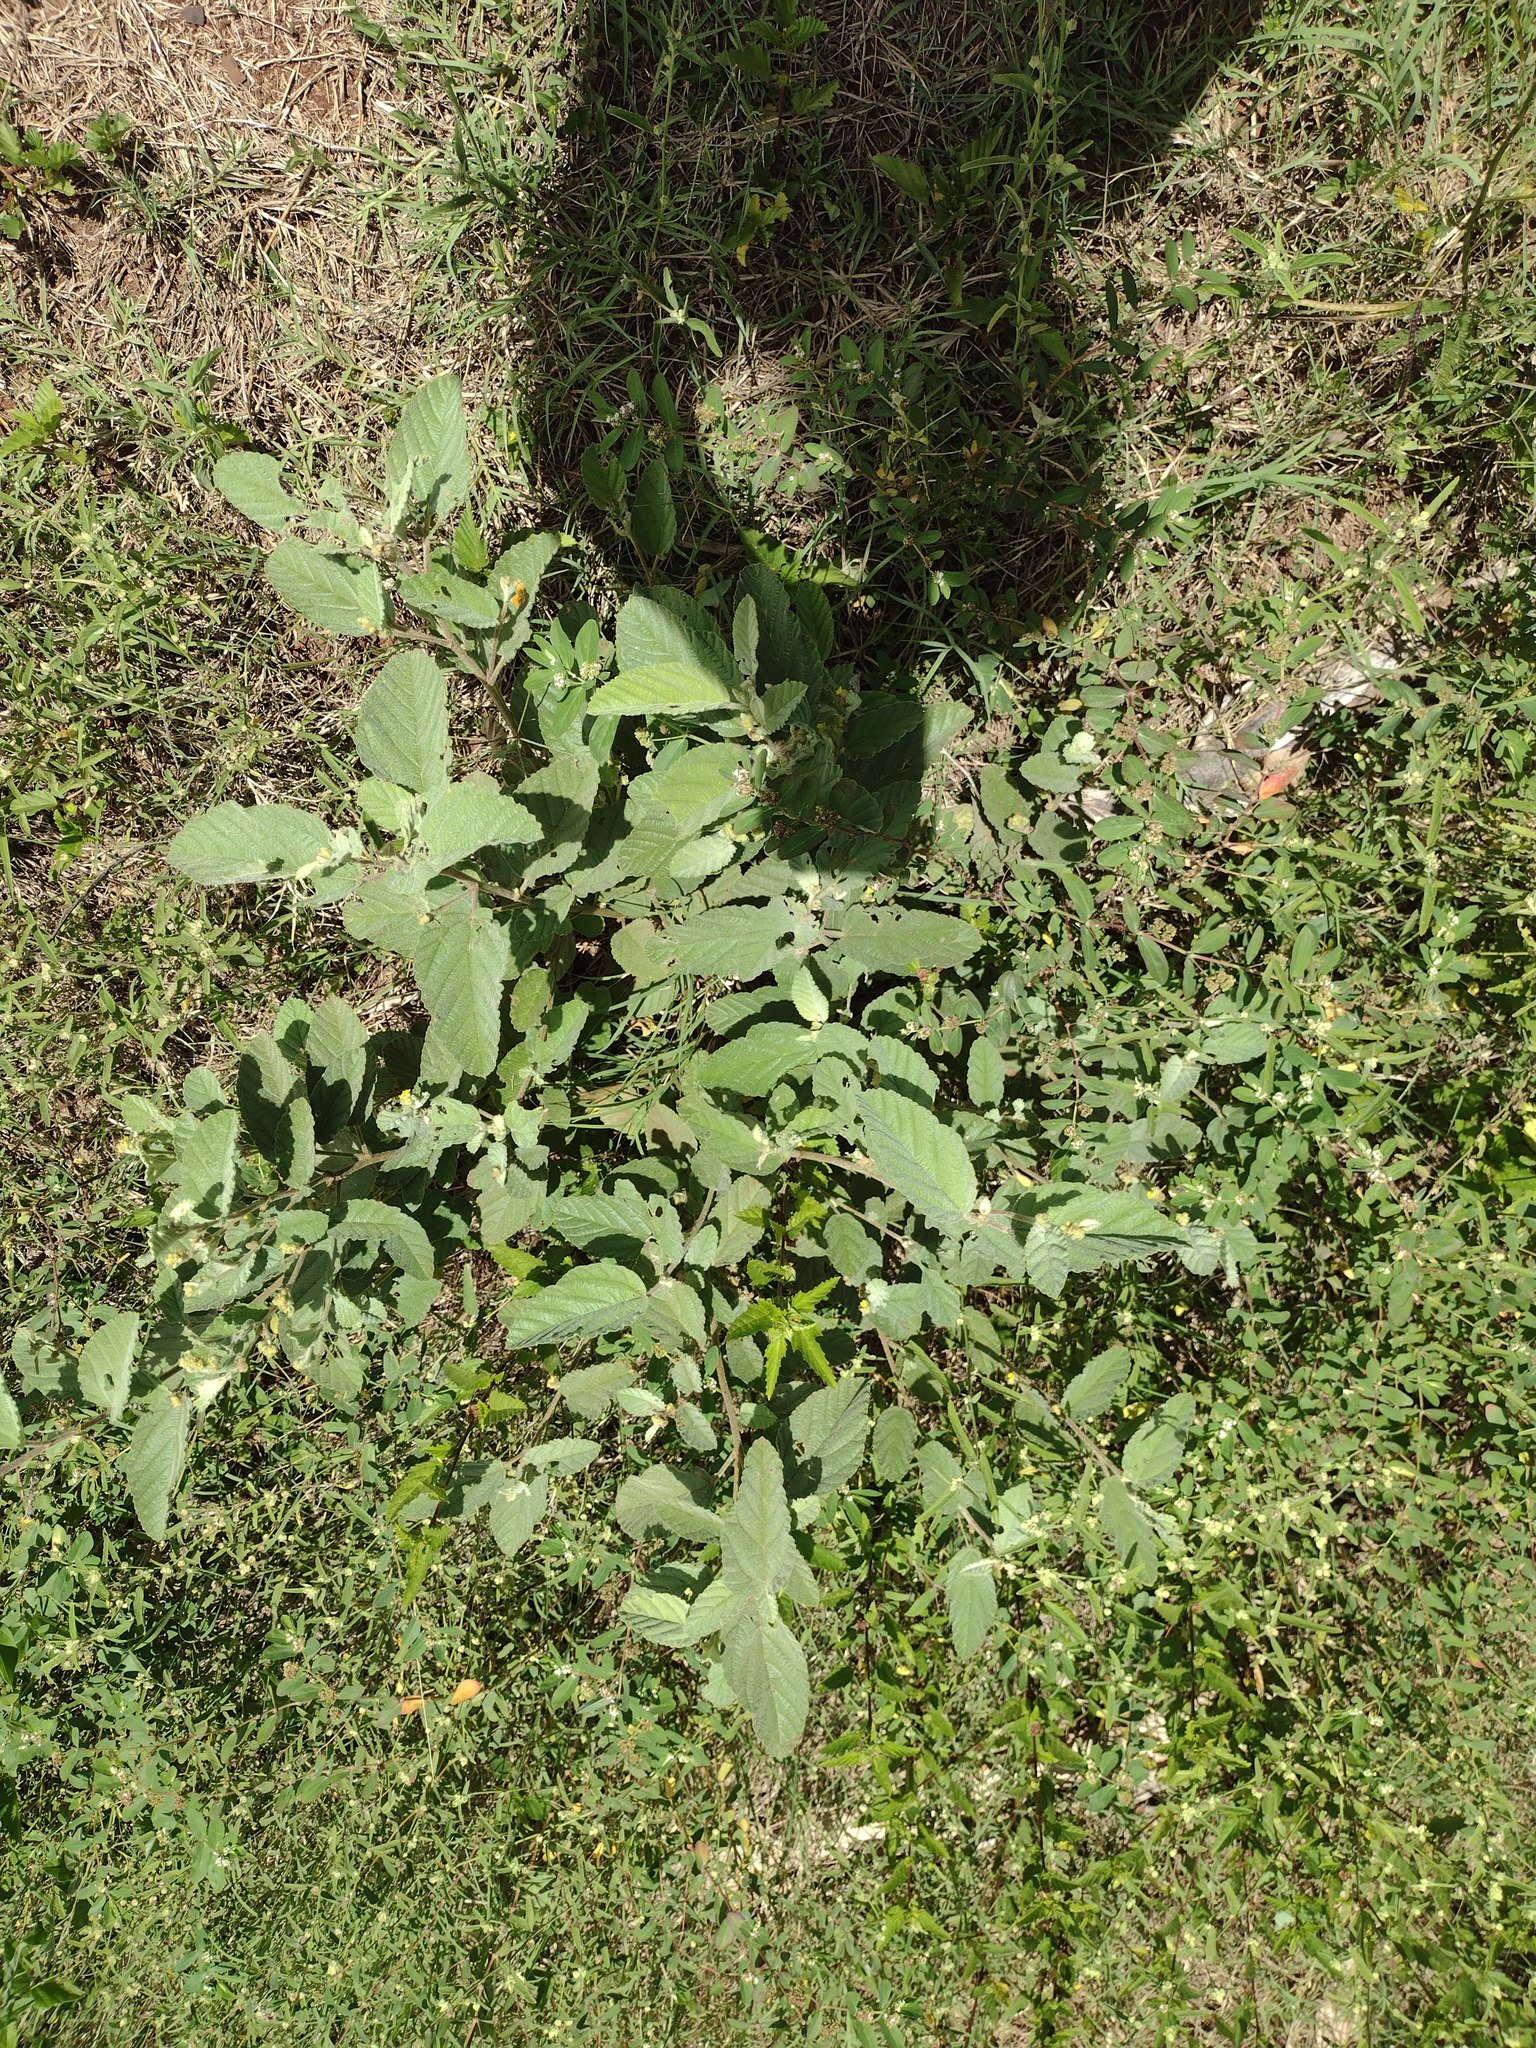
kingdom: Plantae
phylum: Tracheophyta
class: Magnoliopsida
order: Malvales
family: Malvaceae
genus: Waltheria
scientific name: Waltheria indica
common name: Leather-coat
